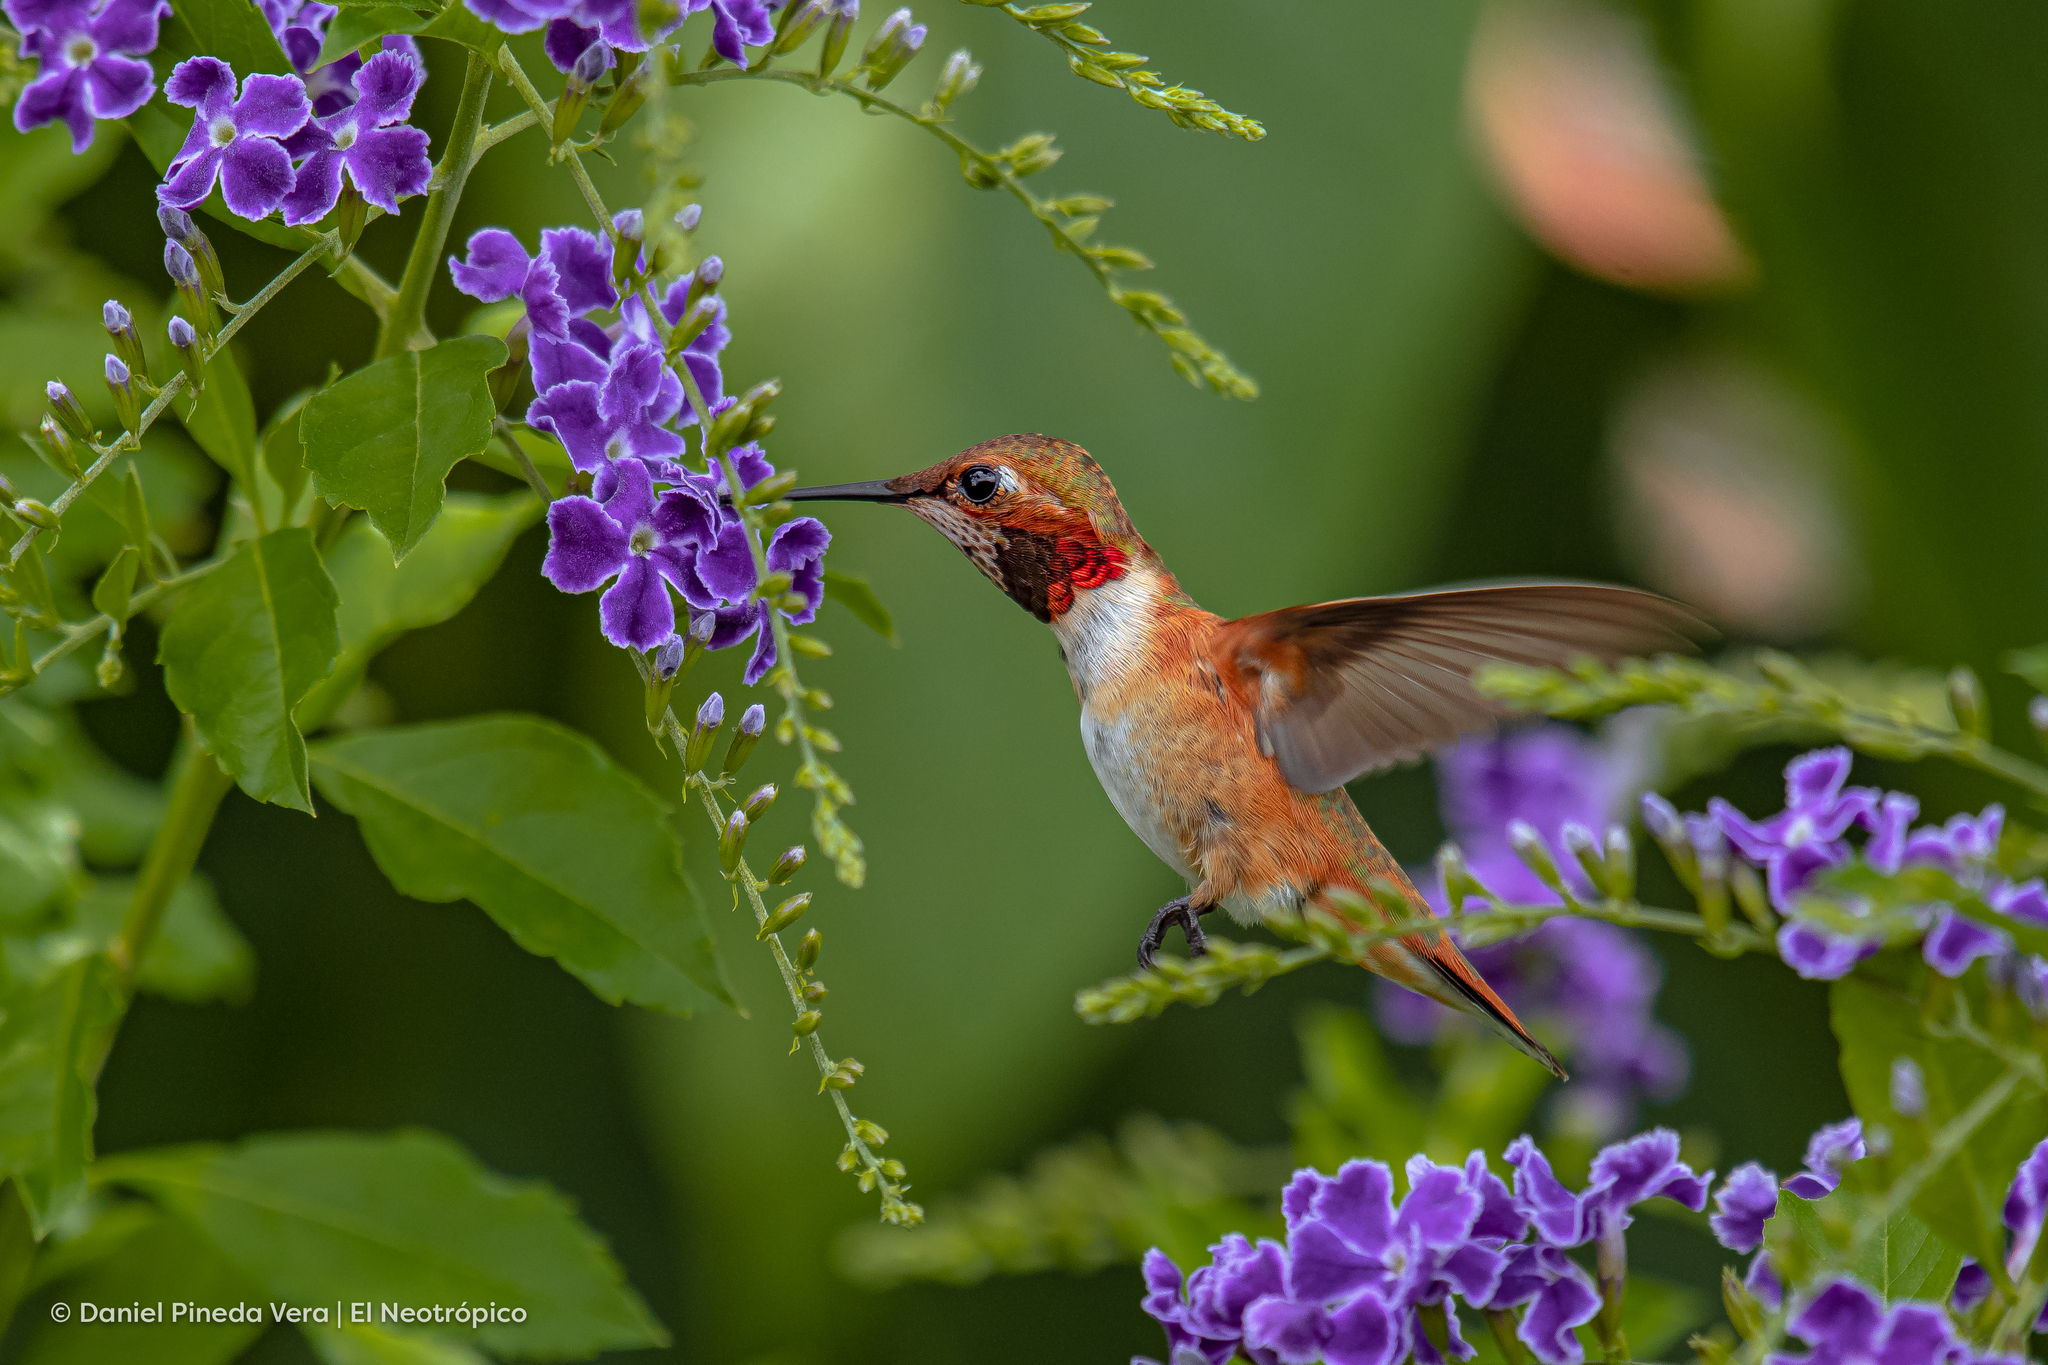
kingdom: Animalia
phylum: Chordata
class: Aves
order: Apodiformes
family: Trochilidae
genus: Selasphorus
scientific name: Selasphorus rufus
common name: Rufous hummingbird
